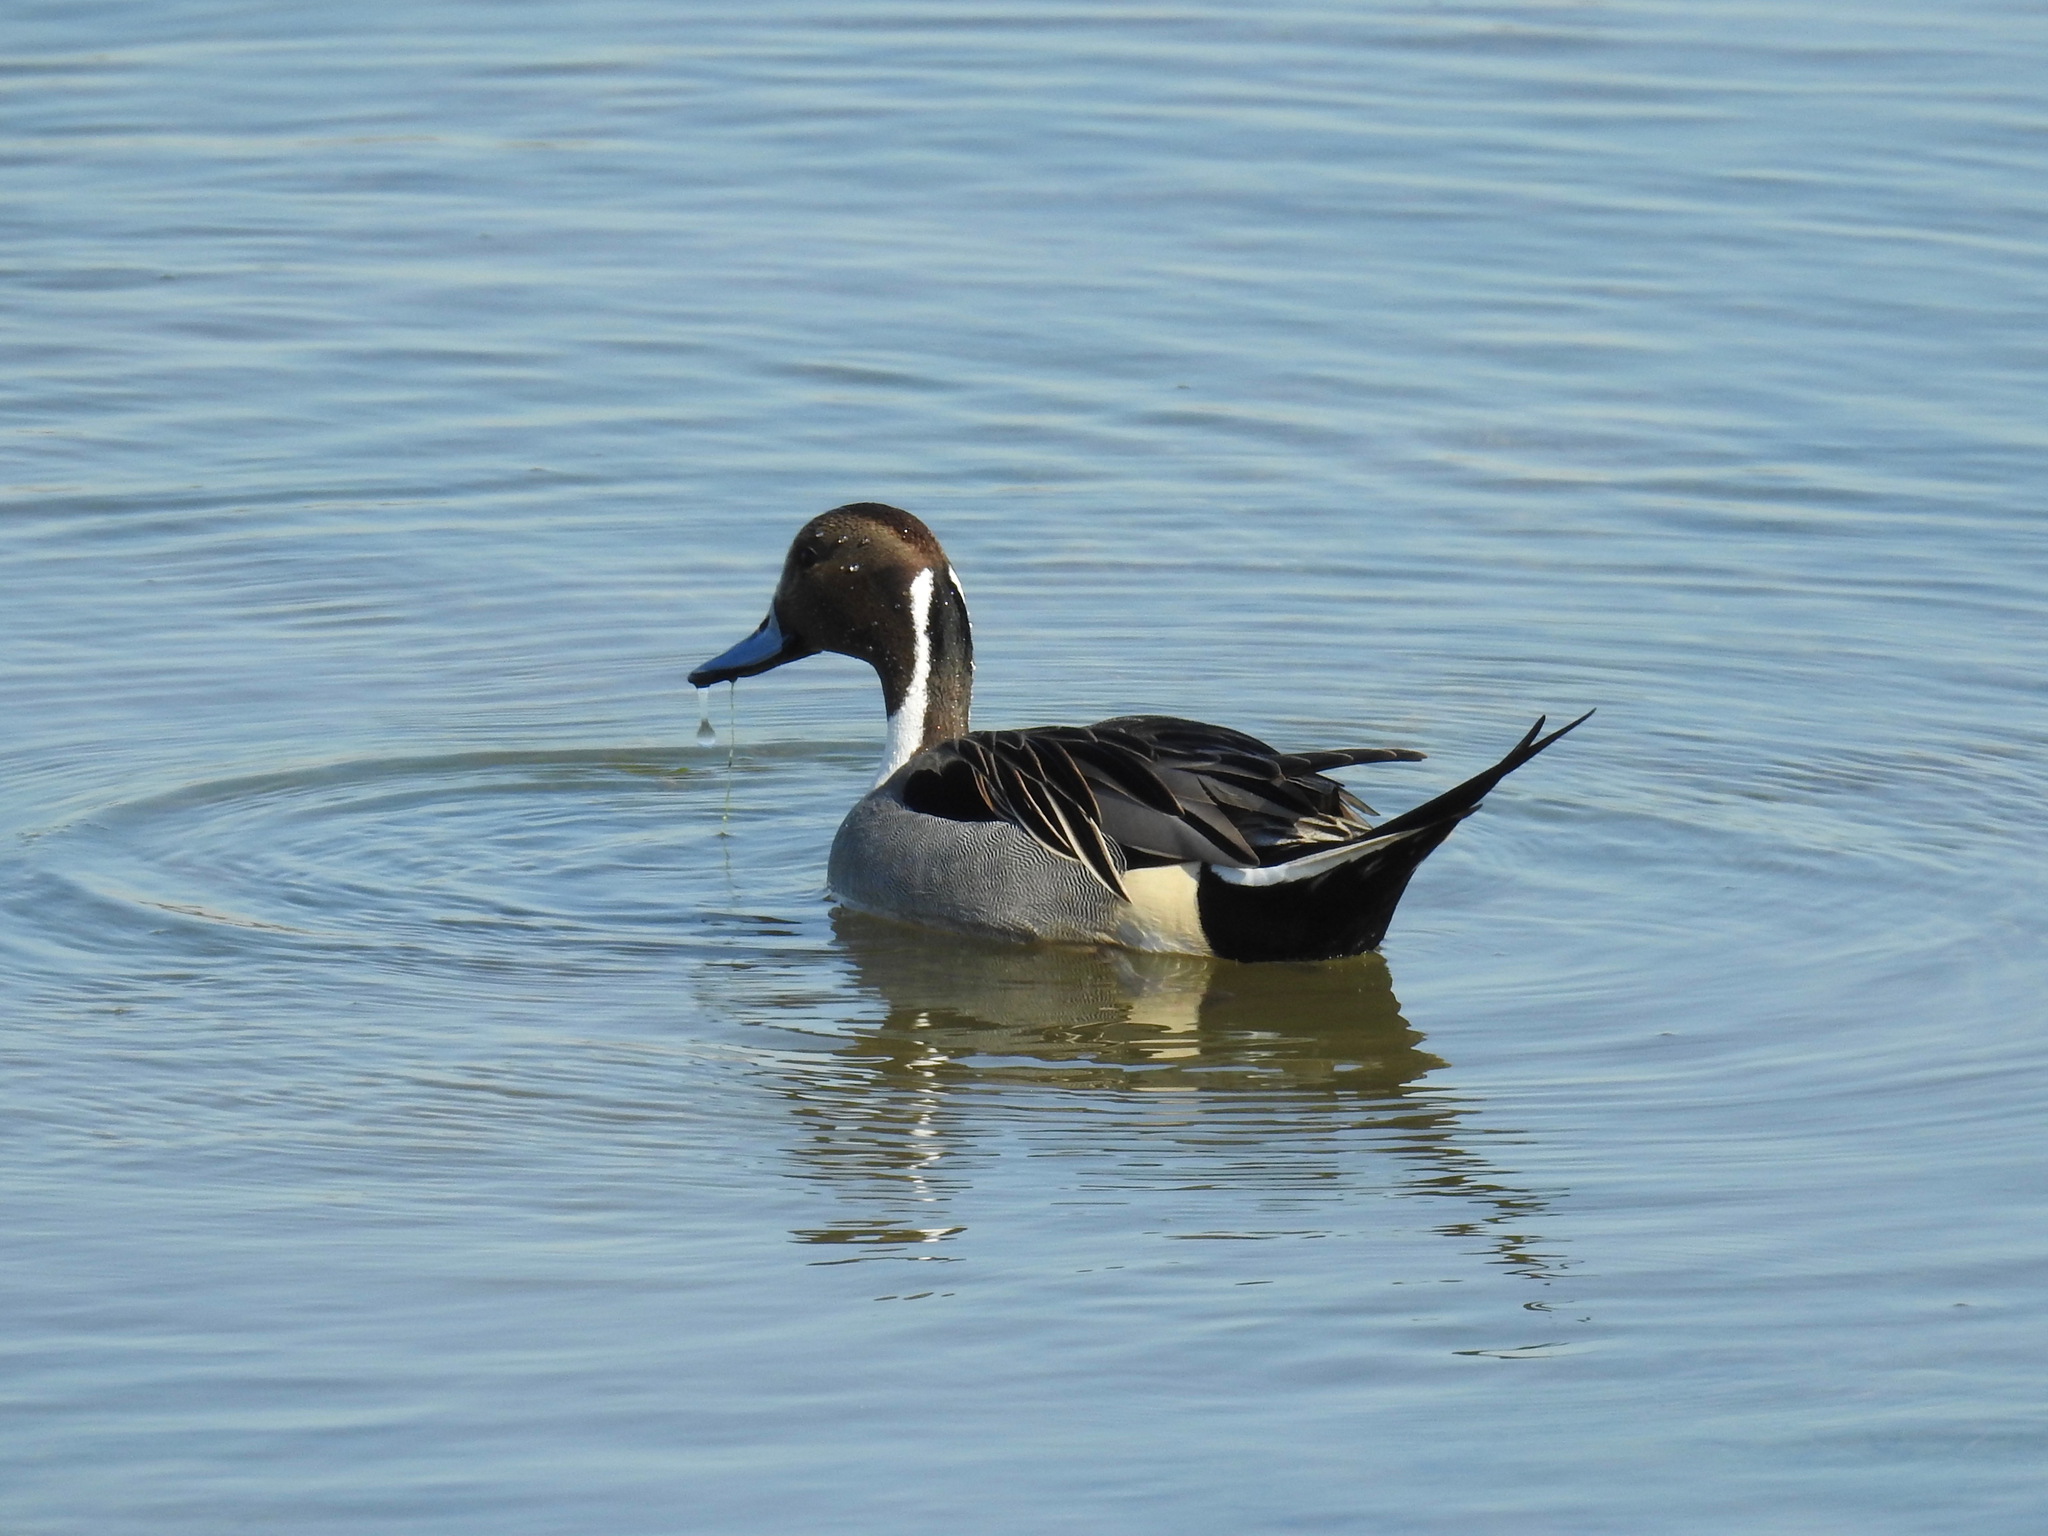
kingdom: Animalia
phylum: Chordata
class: Aves
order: Anseriformes
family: Anatidae
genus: Anas
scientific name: Anas acuta
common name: Northern pintail
